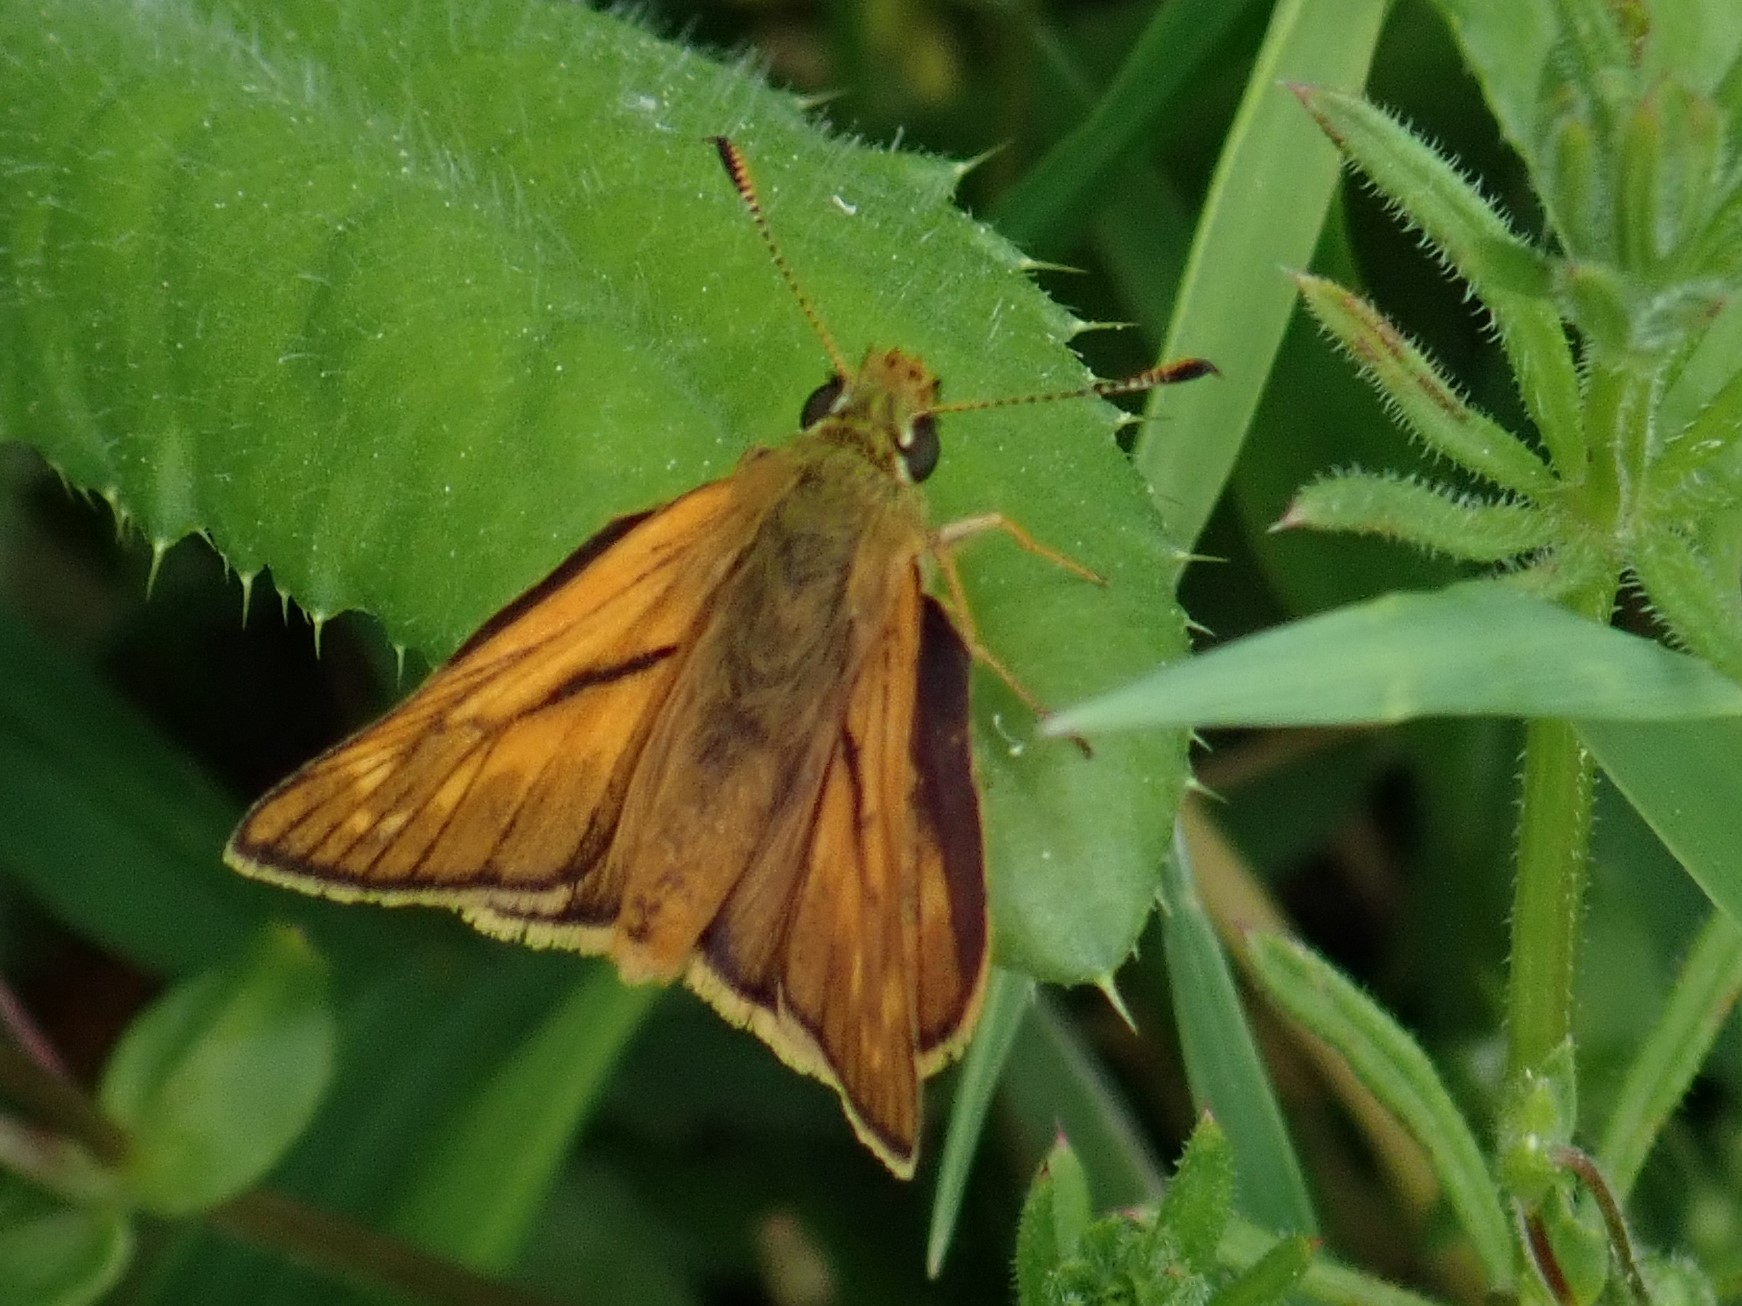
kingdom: Animalia
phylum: Arthropoda
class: Insecta
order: Lepidoptera
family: Hesperiidae
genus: Ochlodes
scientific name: Ochlodes venata
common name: Large skipper
